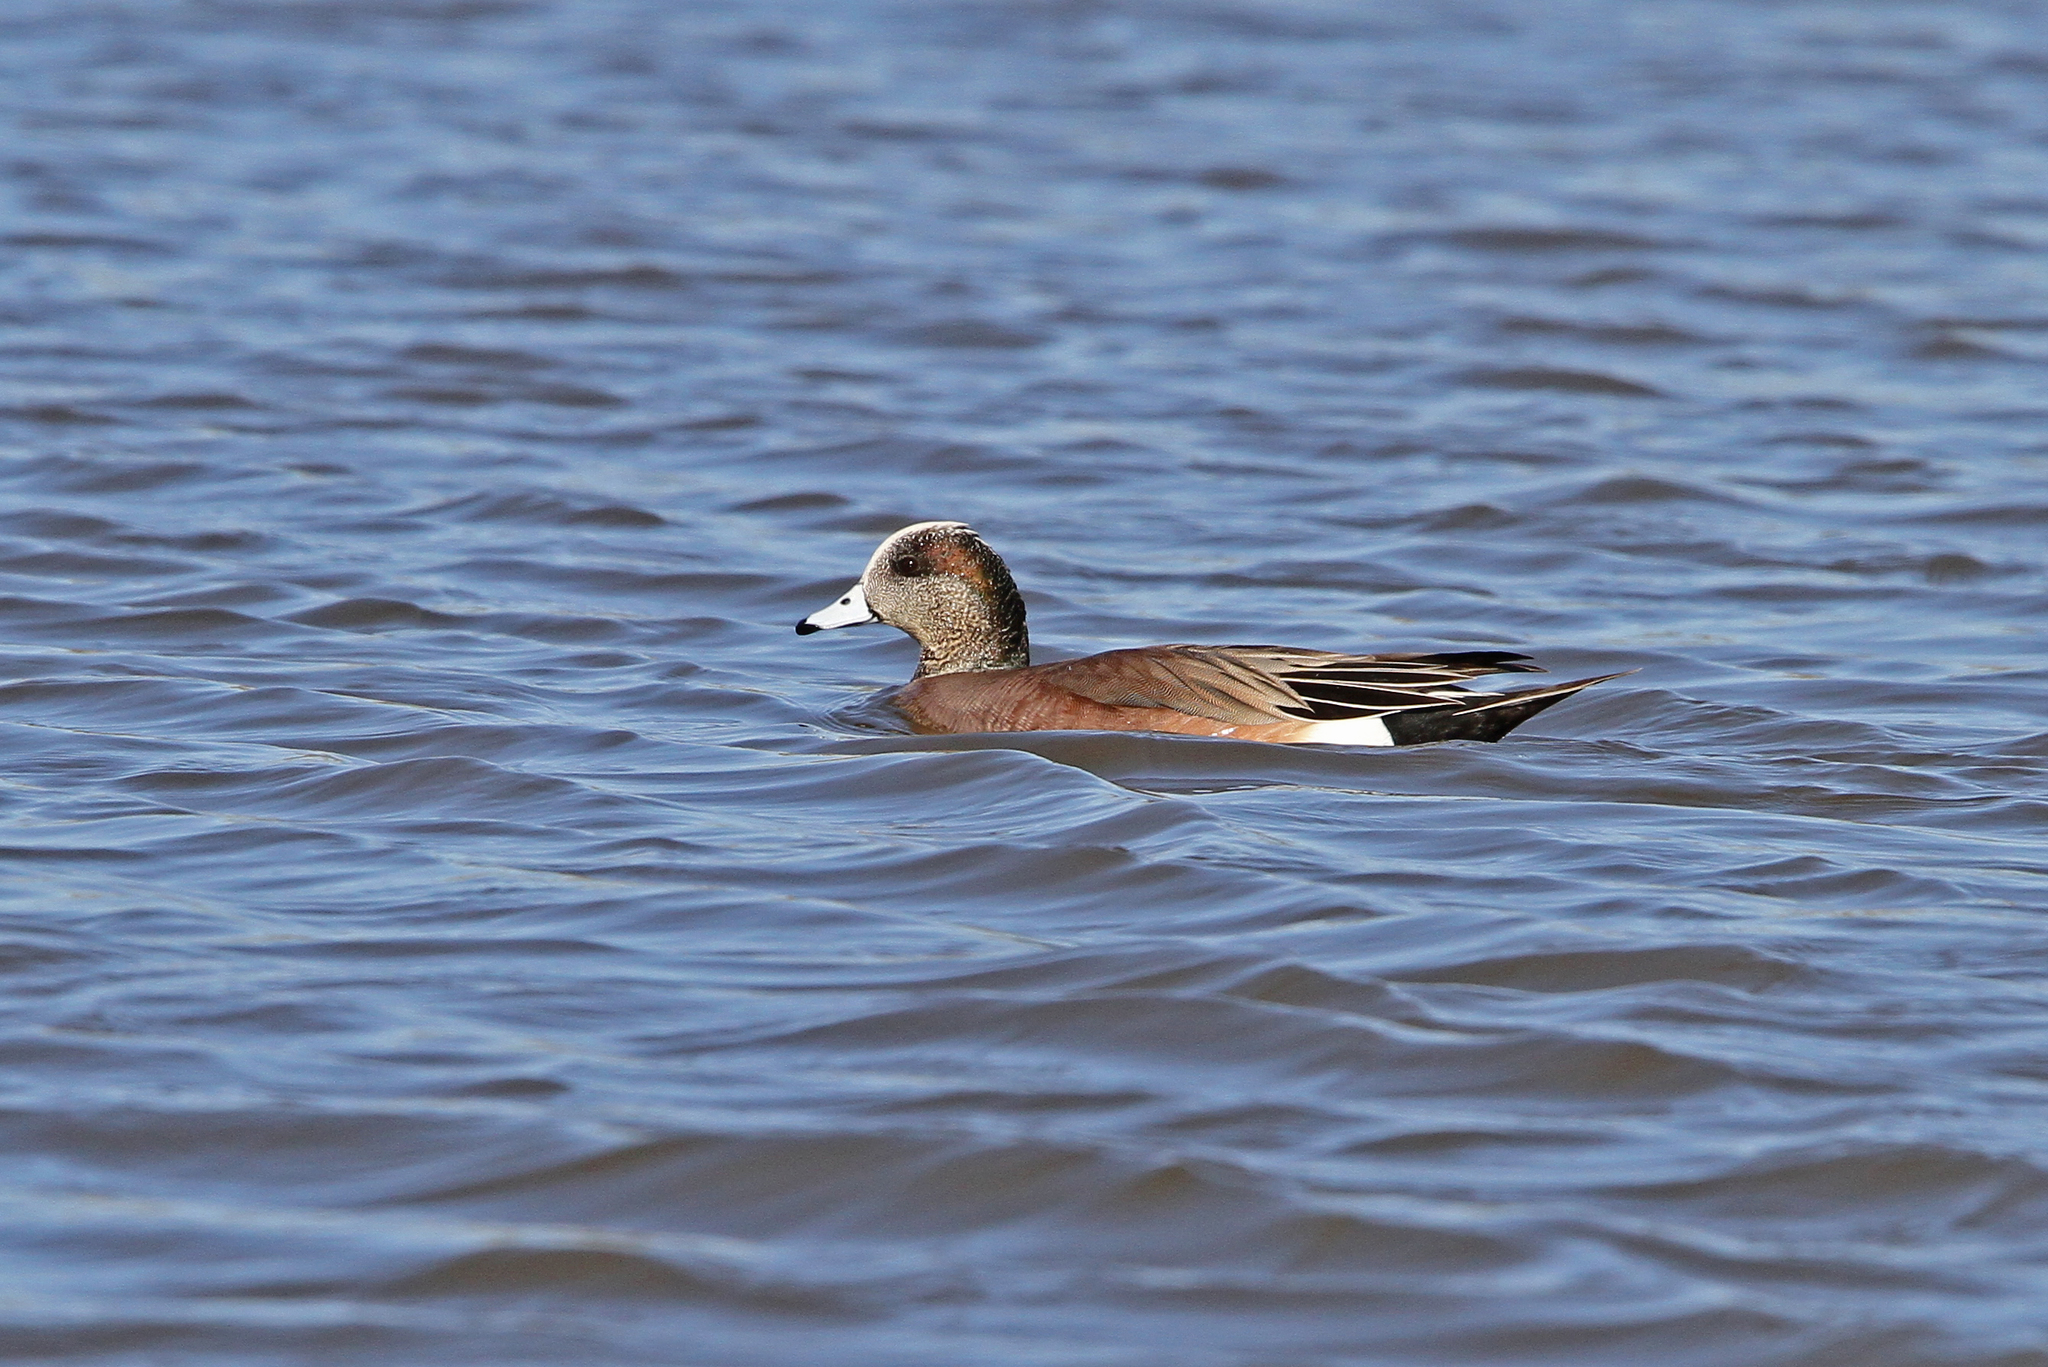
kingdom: Animalia
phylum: Chordata
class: Aves
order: Anseriformes
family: Anatidae
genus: Mareca
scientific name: Mareca americana
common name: American wigeon
